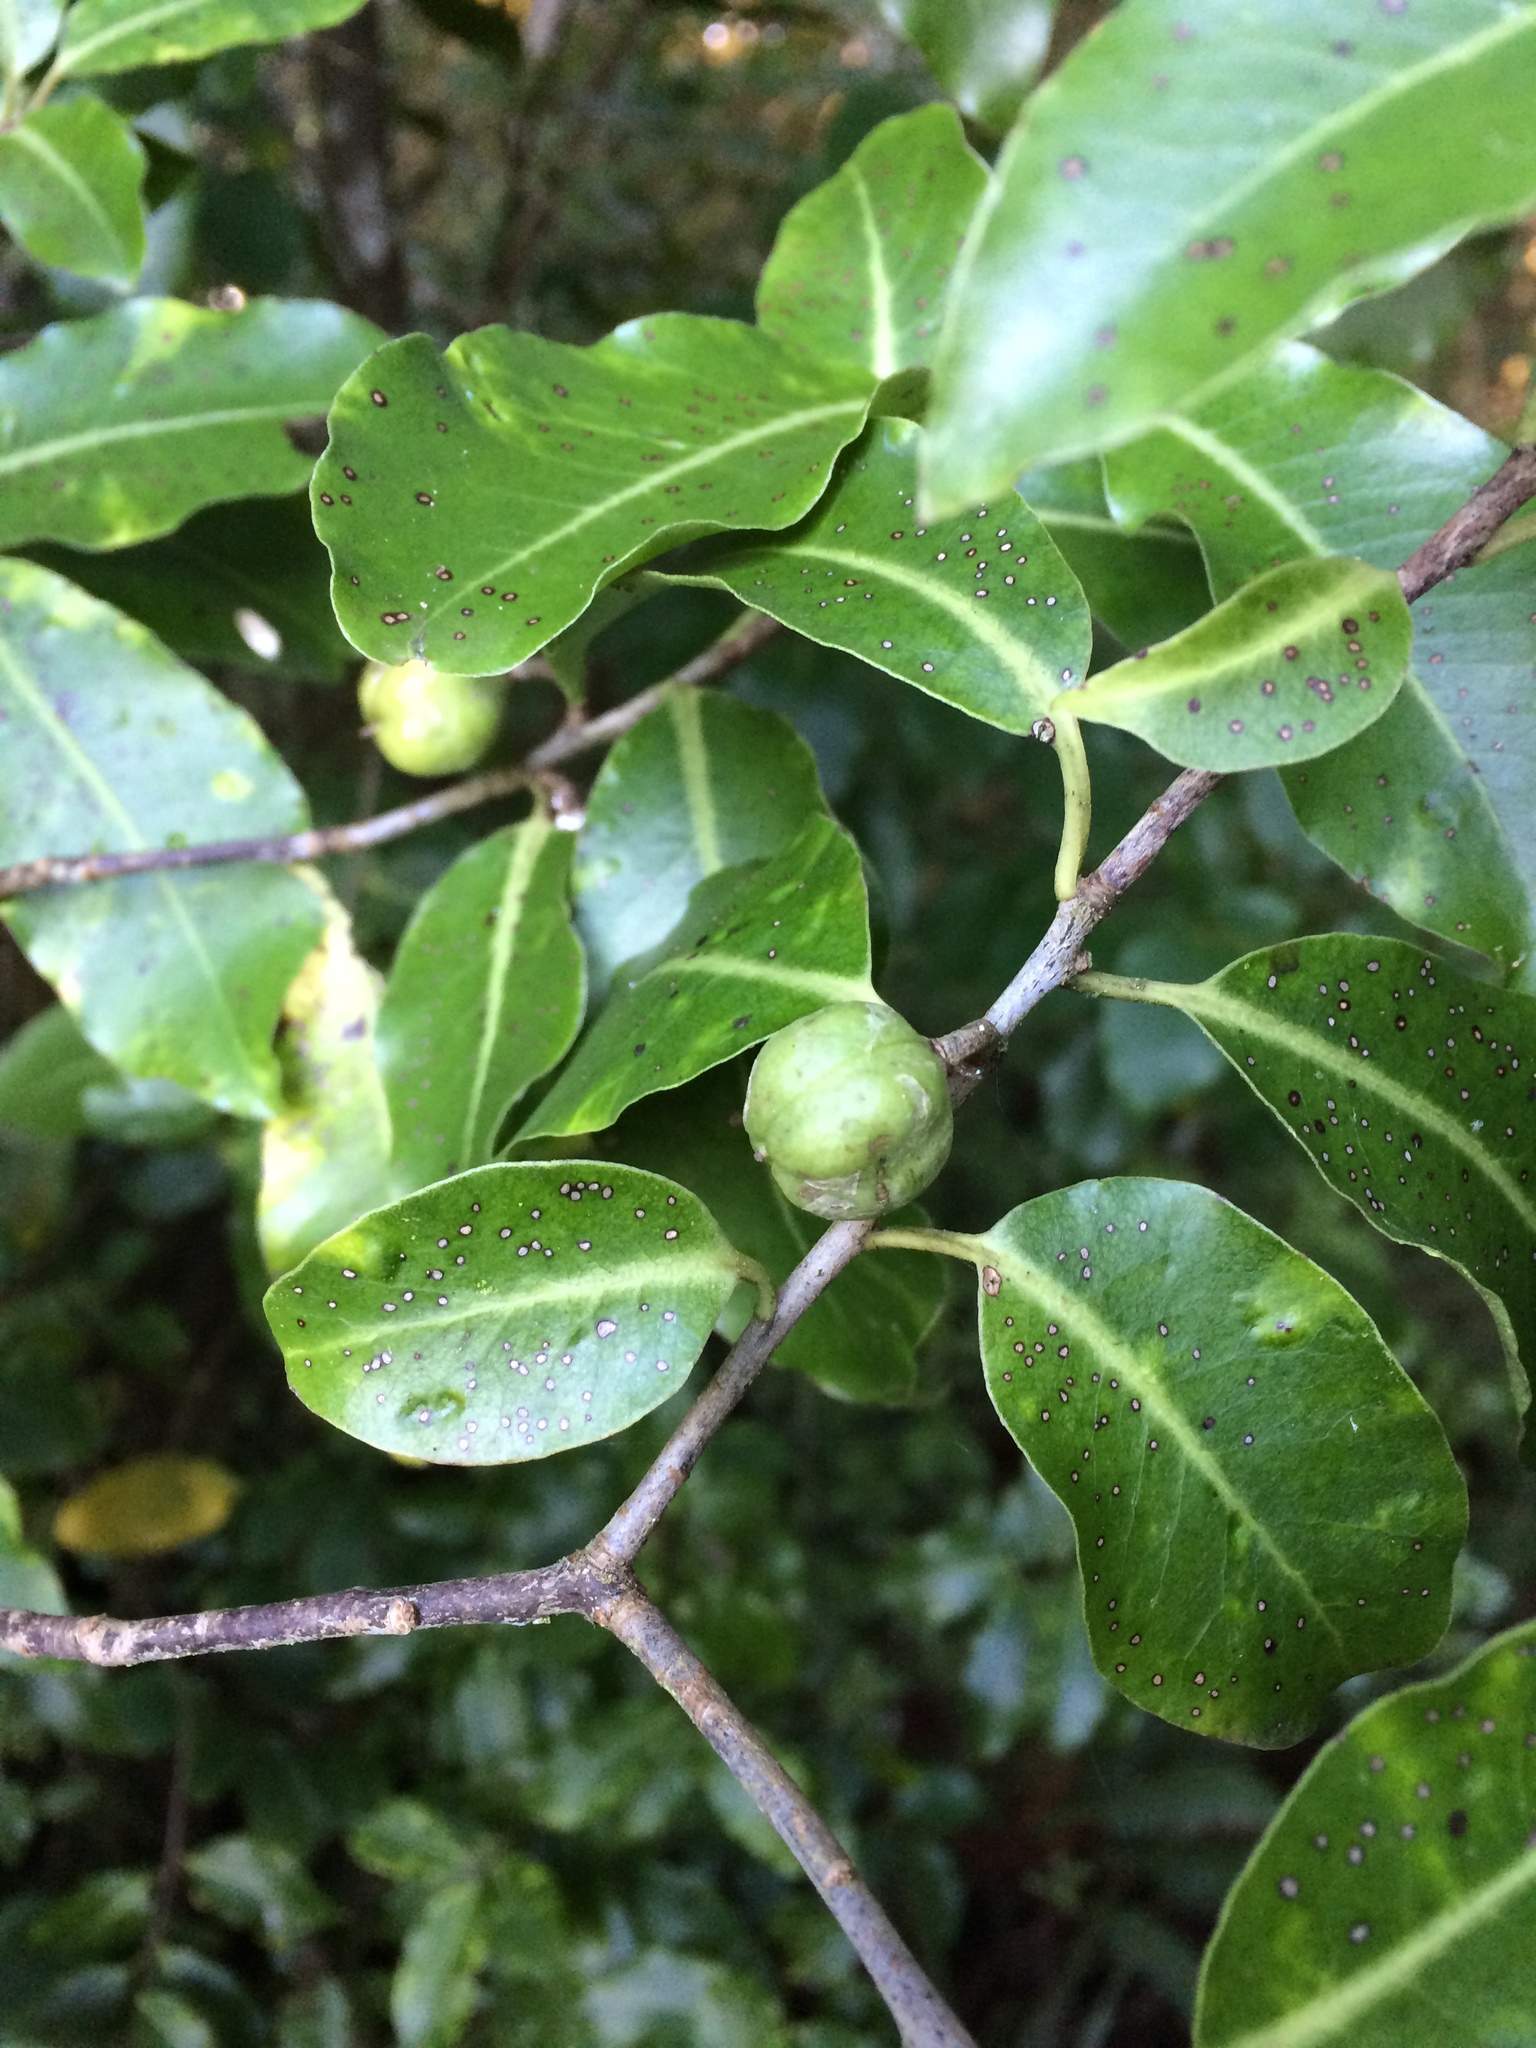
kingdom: Plantae
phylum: Tracheophyta
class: Magnoliopsida
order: Apiales
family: Pittosporaceae
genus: Pittosporum
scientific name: Pittosporum tenuifolium
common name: Kohuhu
